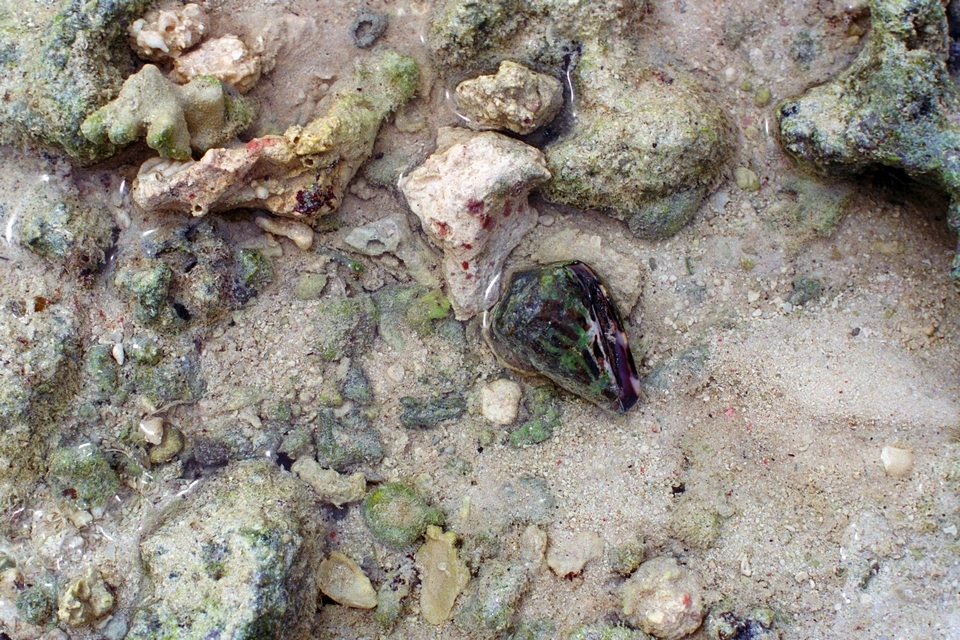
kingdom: Animalia
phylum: Mollusca
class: Gastropoda
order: Neogastropoda
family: Conidae
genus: Conus
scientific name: Conus ebraeus
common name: Hebrew cone
